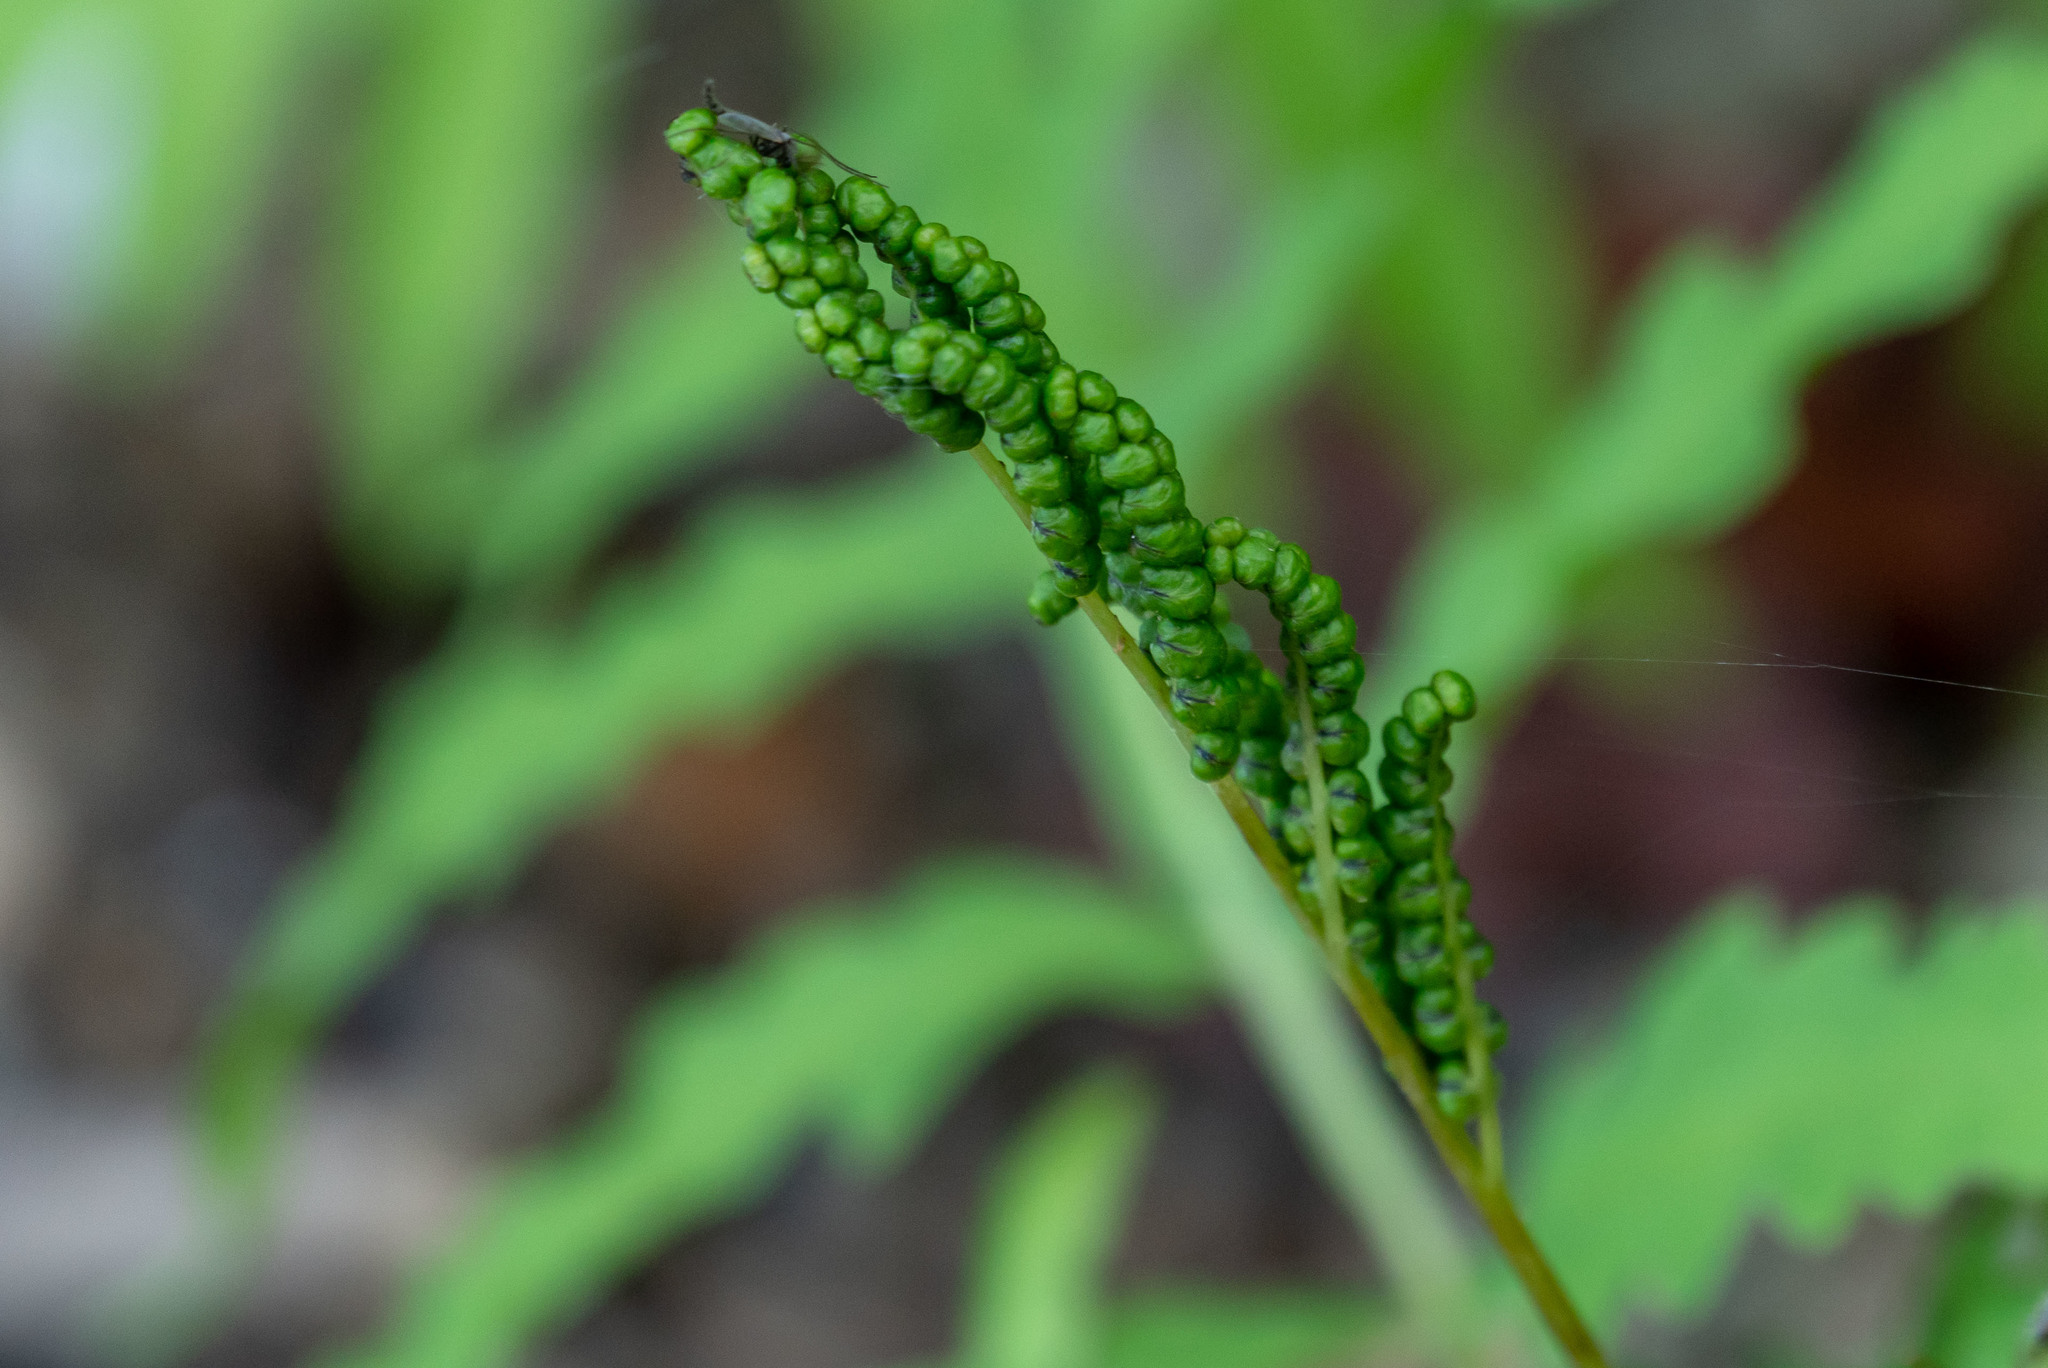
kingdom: Plantae
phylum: Tracheophyta
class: Polypodiopsida
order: Polypodiales
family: Onocleaceae
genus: Onoclea
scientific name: Onoclea sensibilis
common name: Sensitive fern
